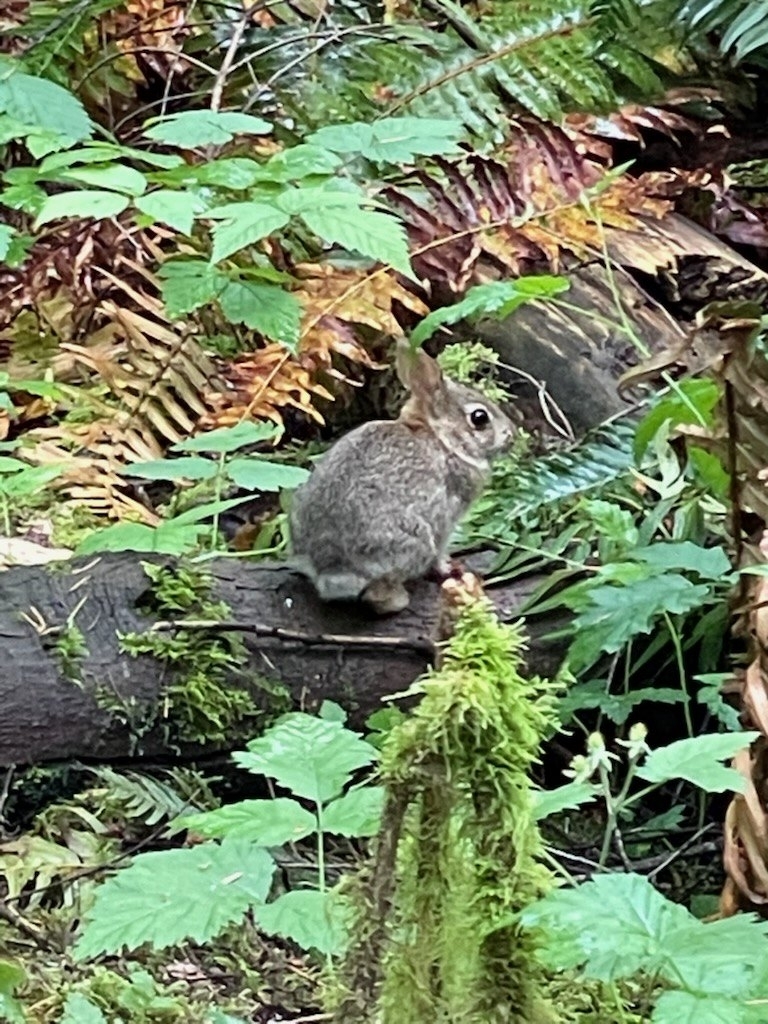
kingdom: Animalia
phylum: Chordata
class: Mammalia
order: Lagomorpha
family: Leporidae
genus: Sylvilagus
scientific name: Sylvilagus floridanus
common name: Eastern cottontail
